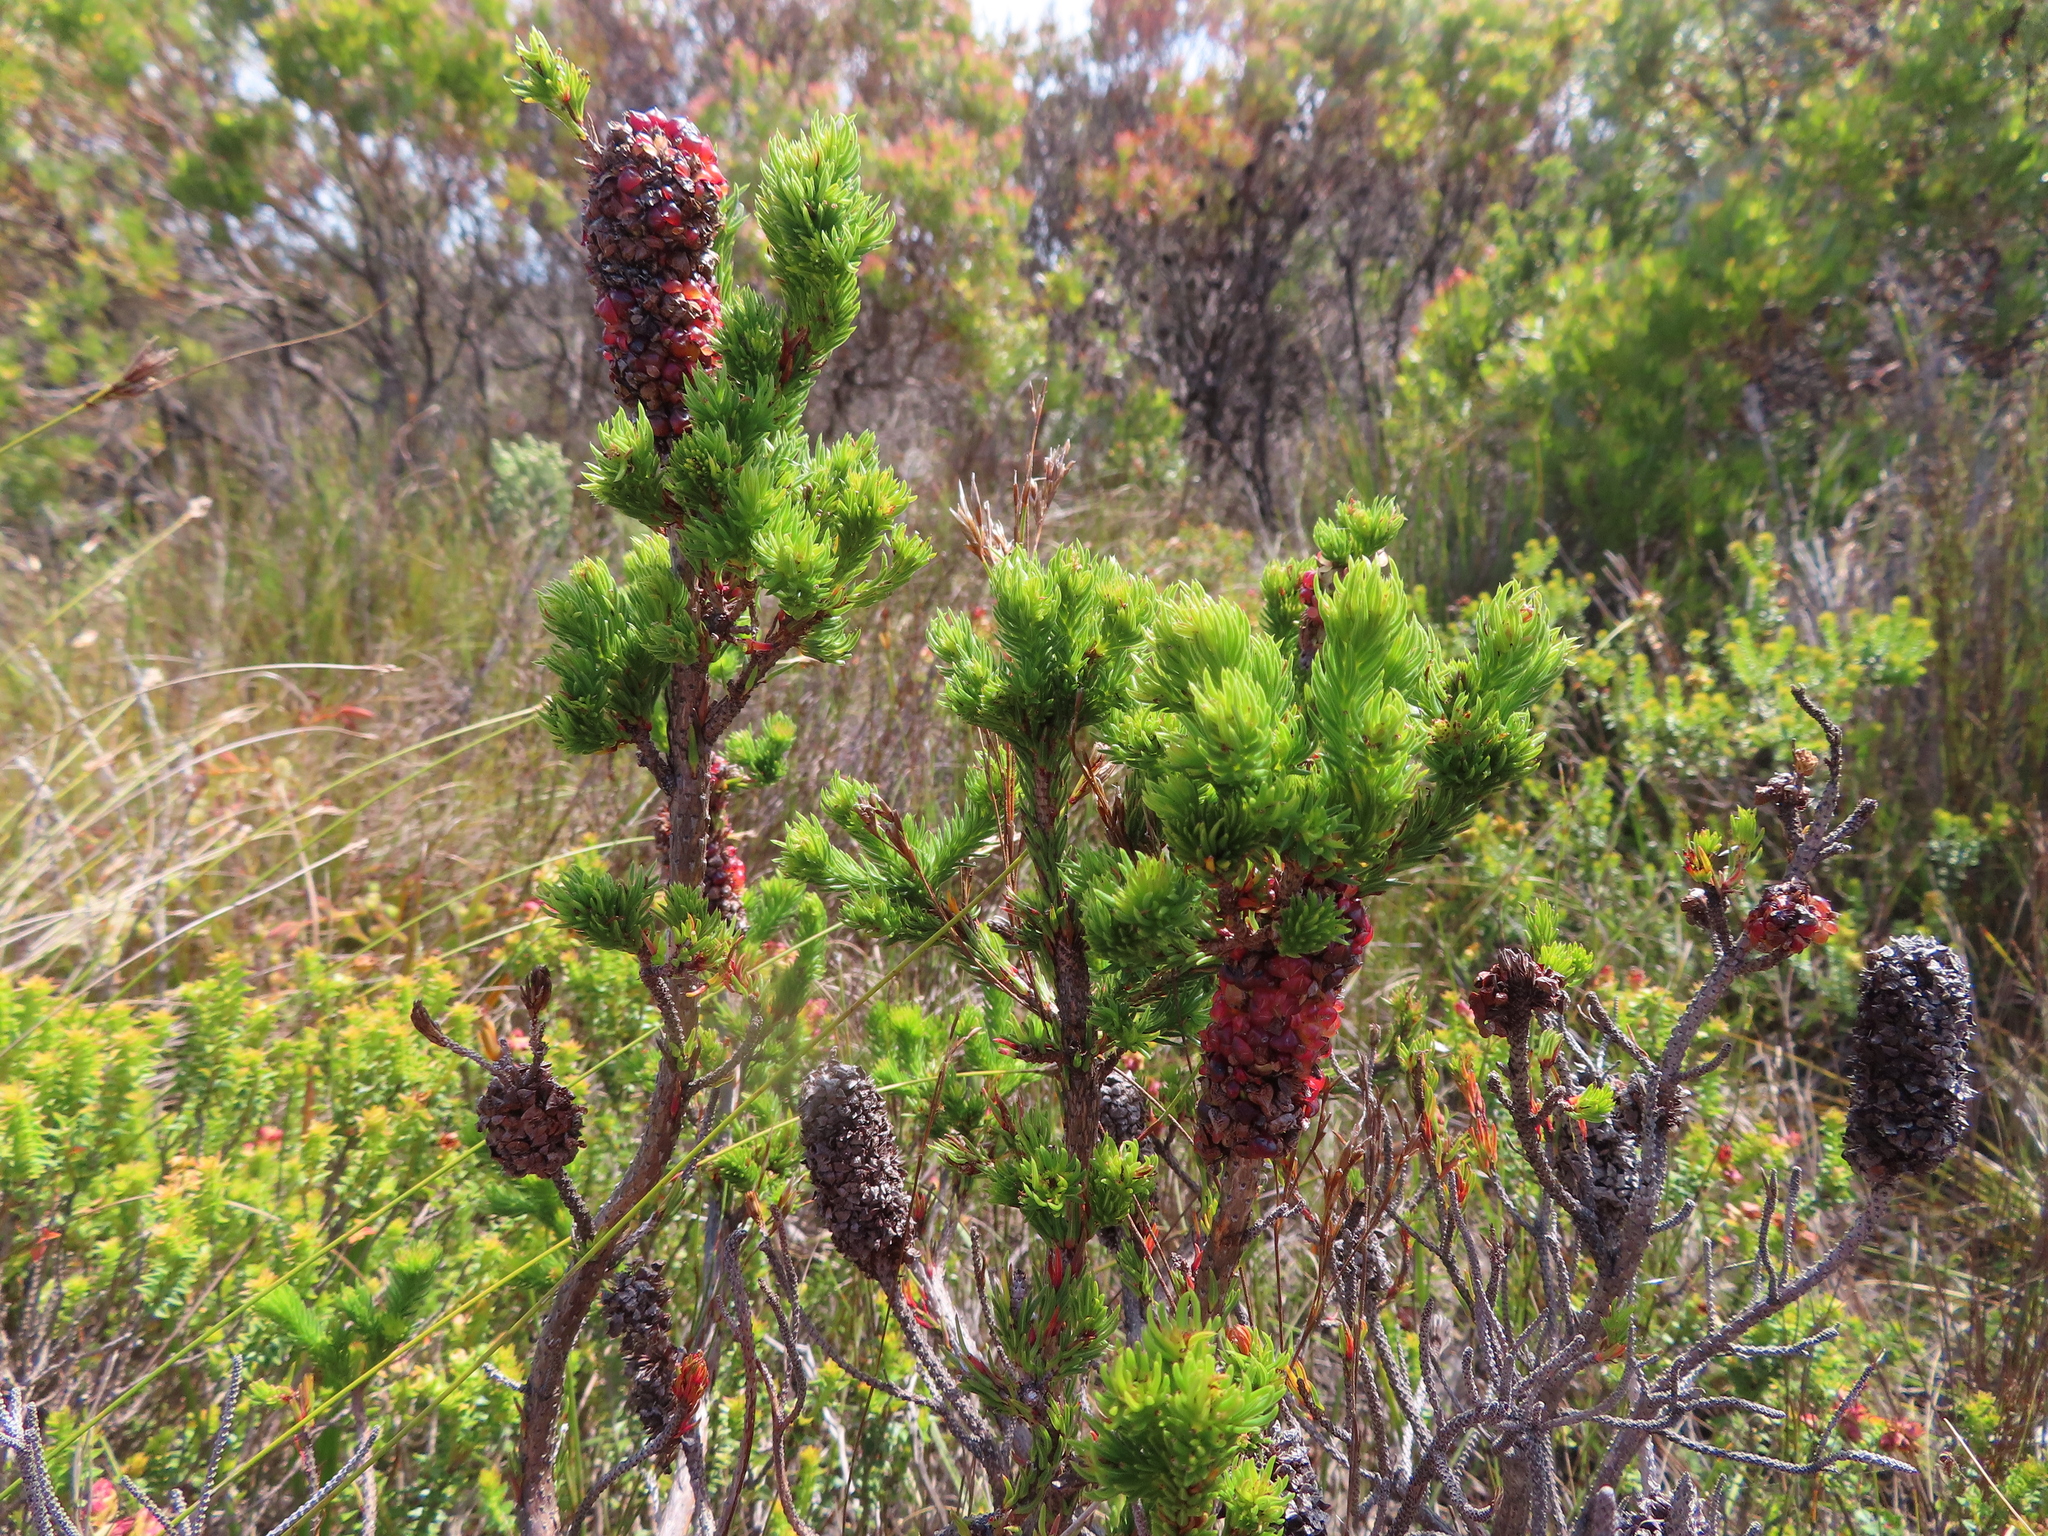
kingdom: Plantae
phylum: Tracheophyta
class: Magnoliopsida
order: Ericales
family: Ericaceae
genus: Erica
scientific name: Erica sessiliflora
